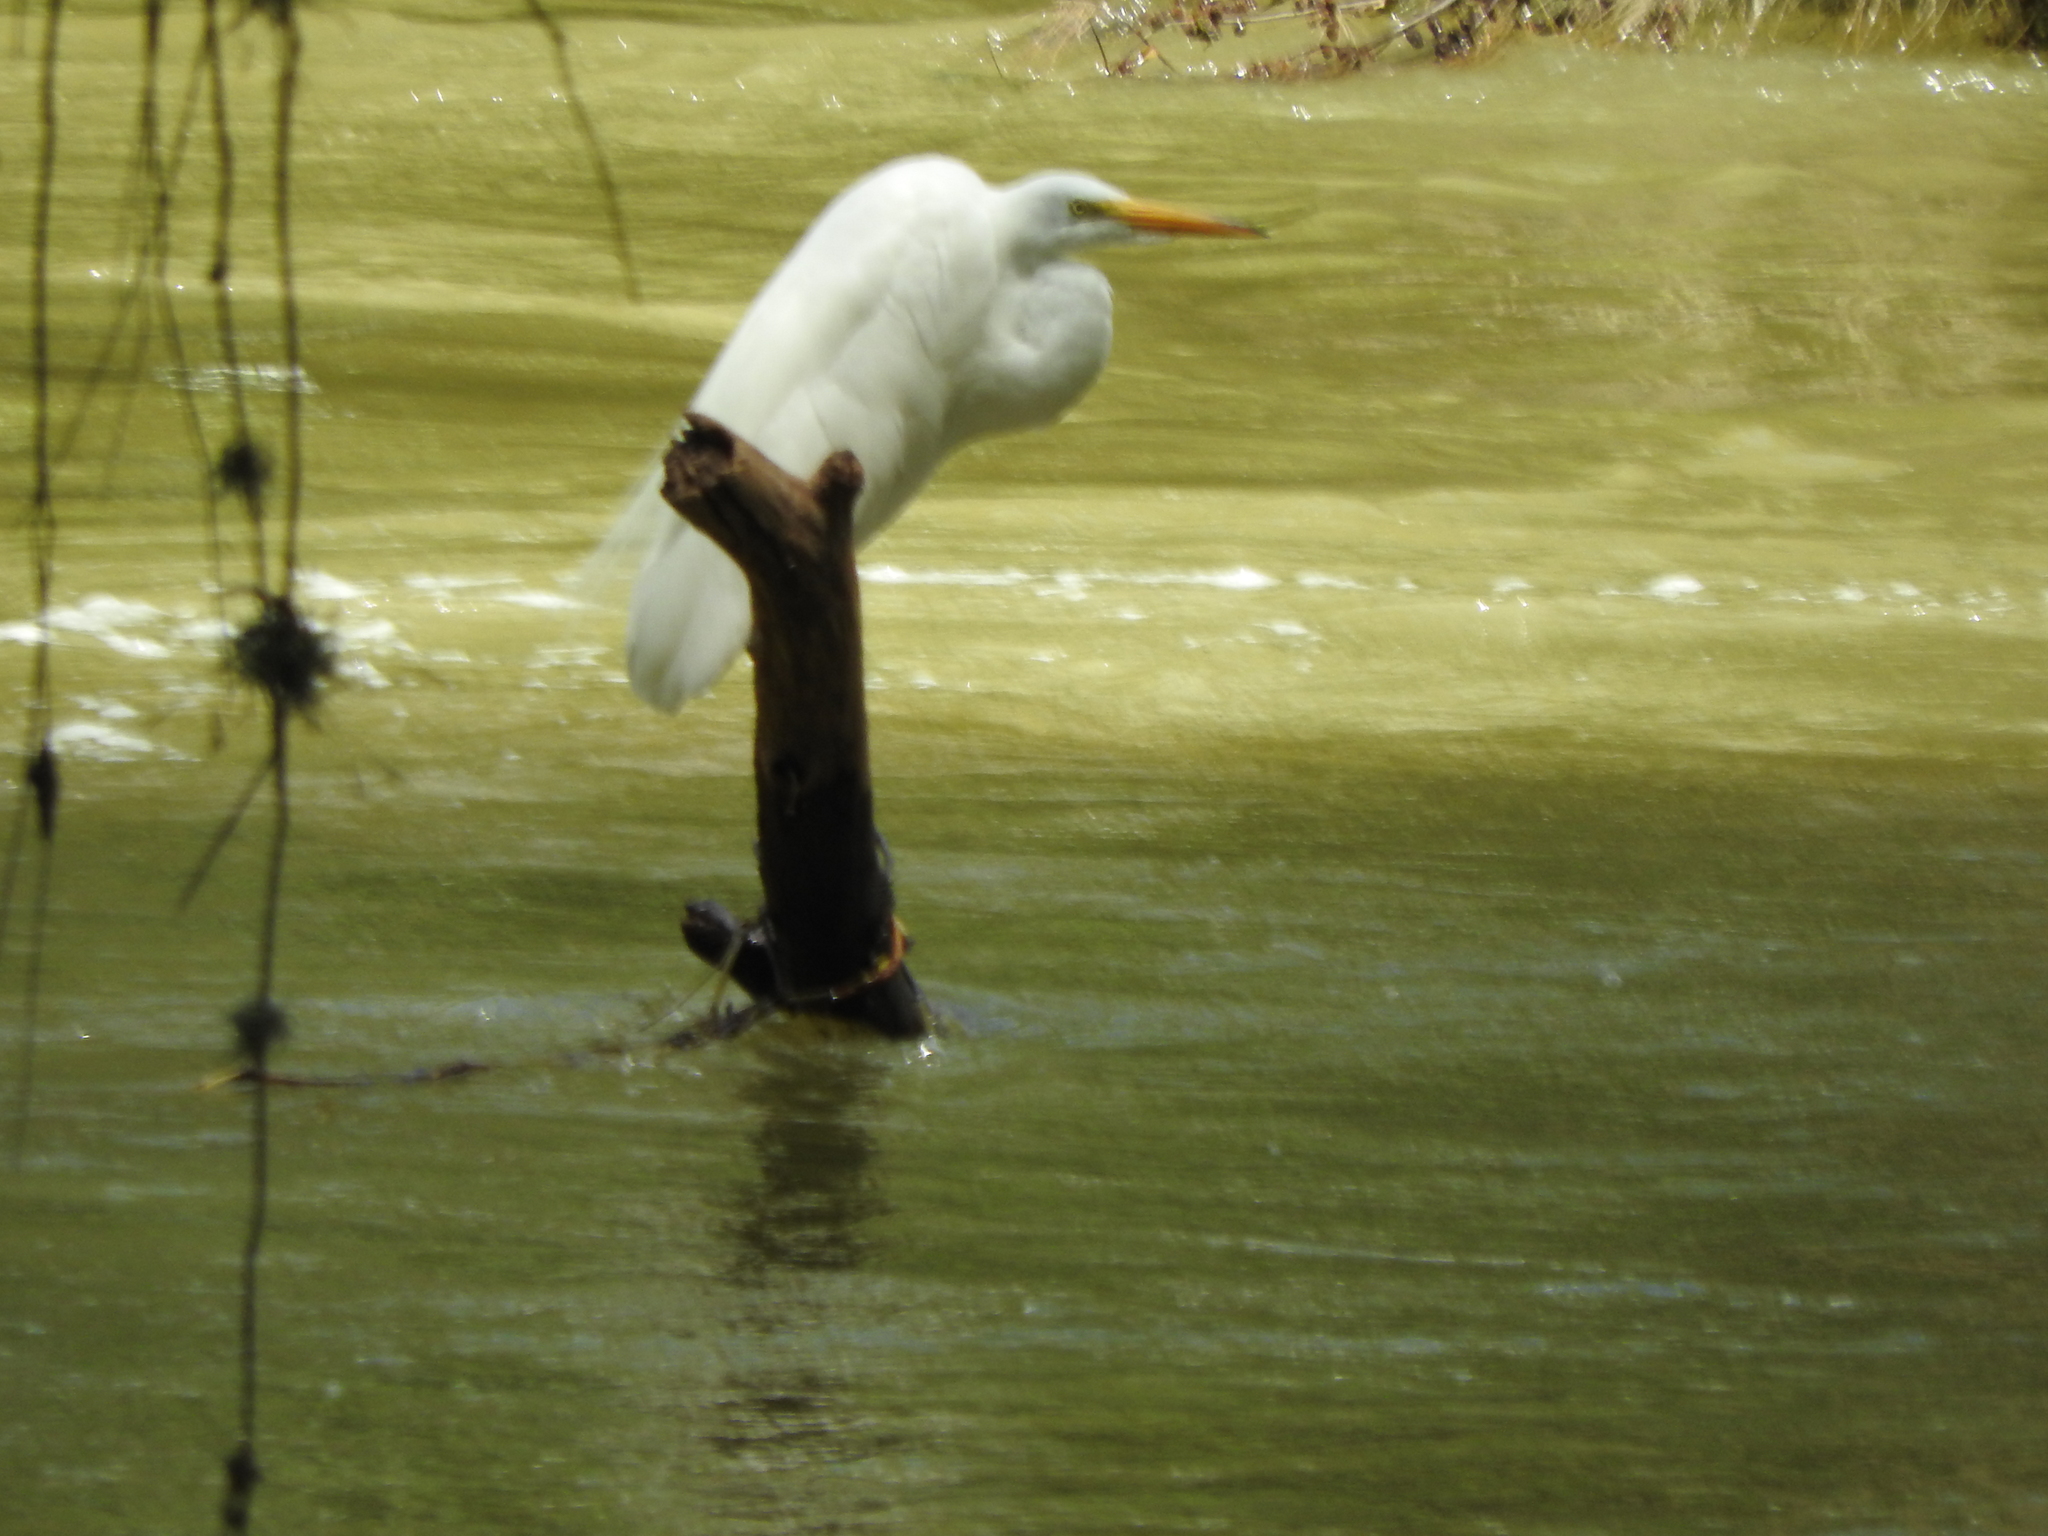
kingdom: Animalia
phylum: Chordata
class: Aves
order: Pelecaniformes
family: Ardeidae
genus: Ardea
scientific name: Ardea alba
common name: Great egret
